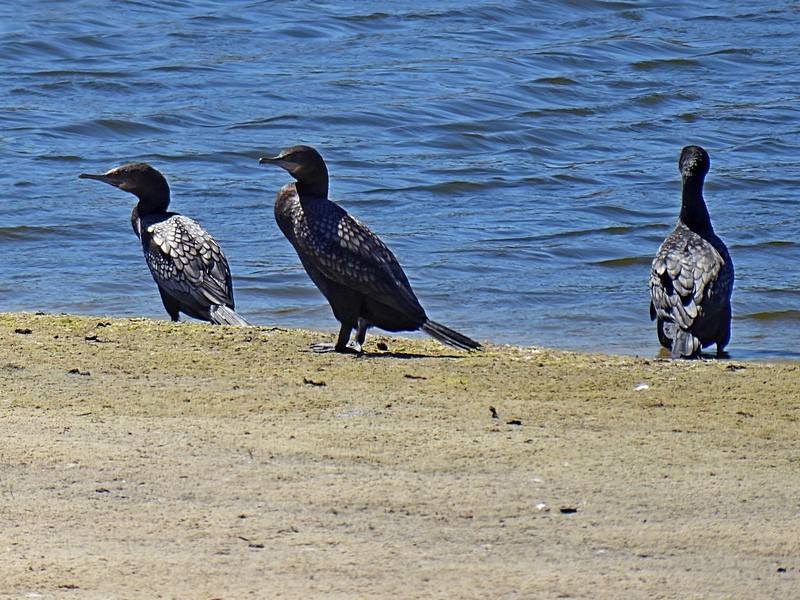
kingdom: Animalia
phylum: Chordata
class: Aves
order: Suliformes
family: Phalacrocoracidae
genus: Phalacrocorax
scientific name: Phalacrocorax sulcirostris
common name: Little black cormorant
